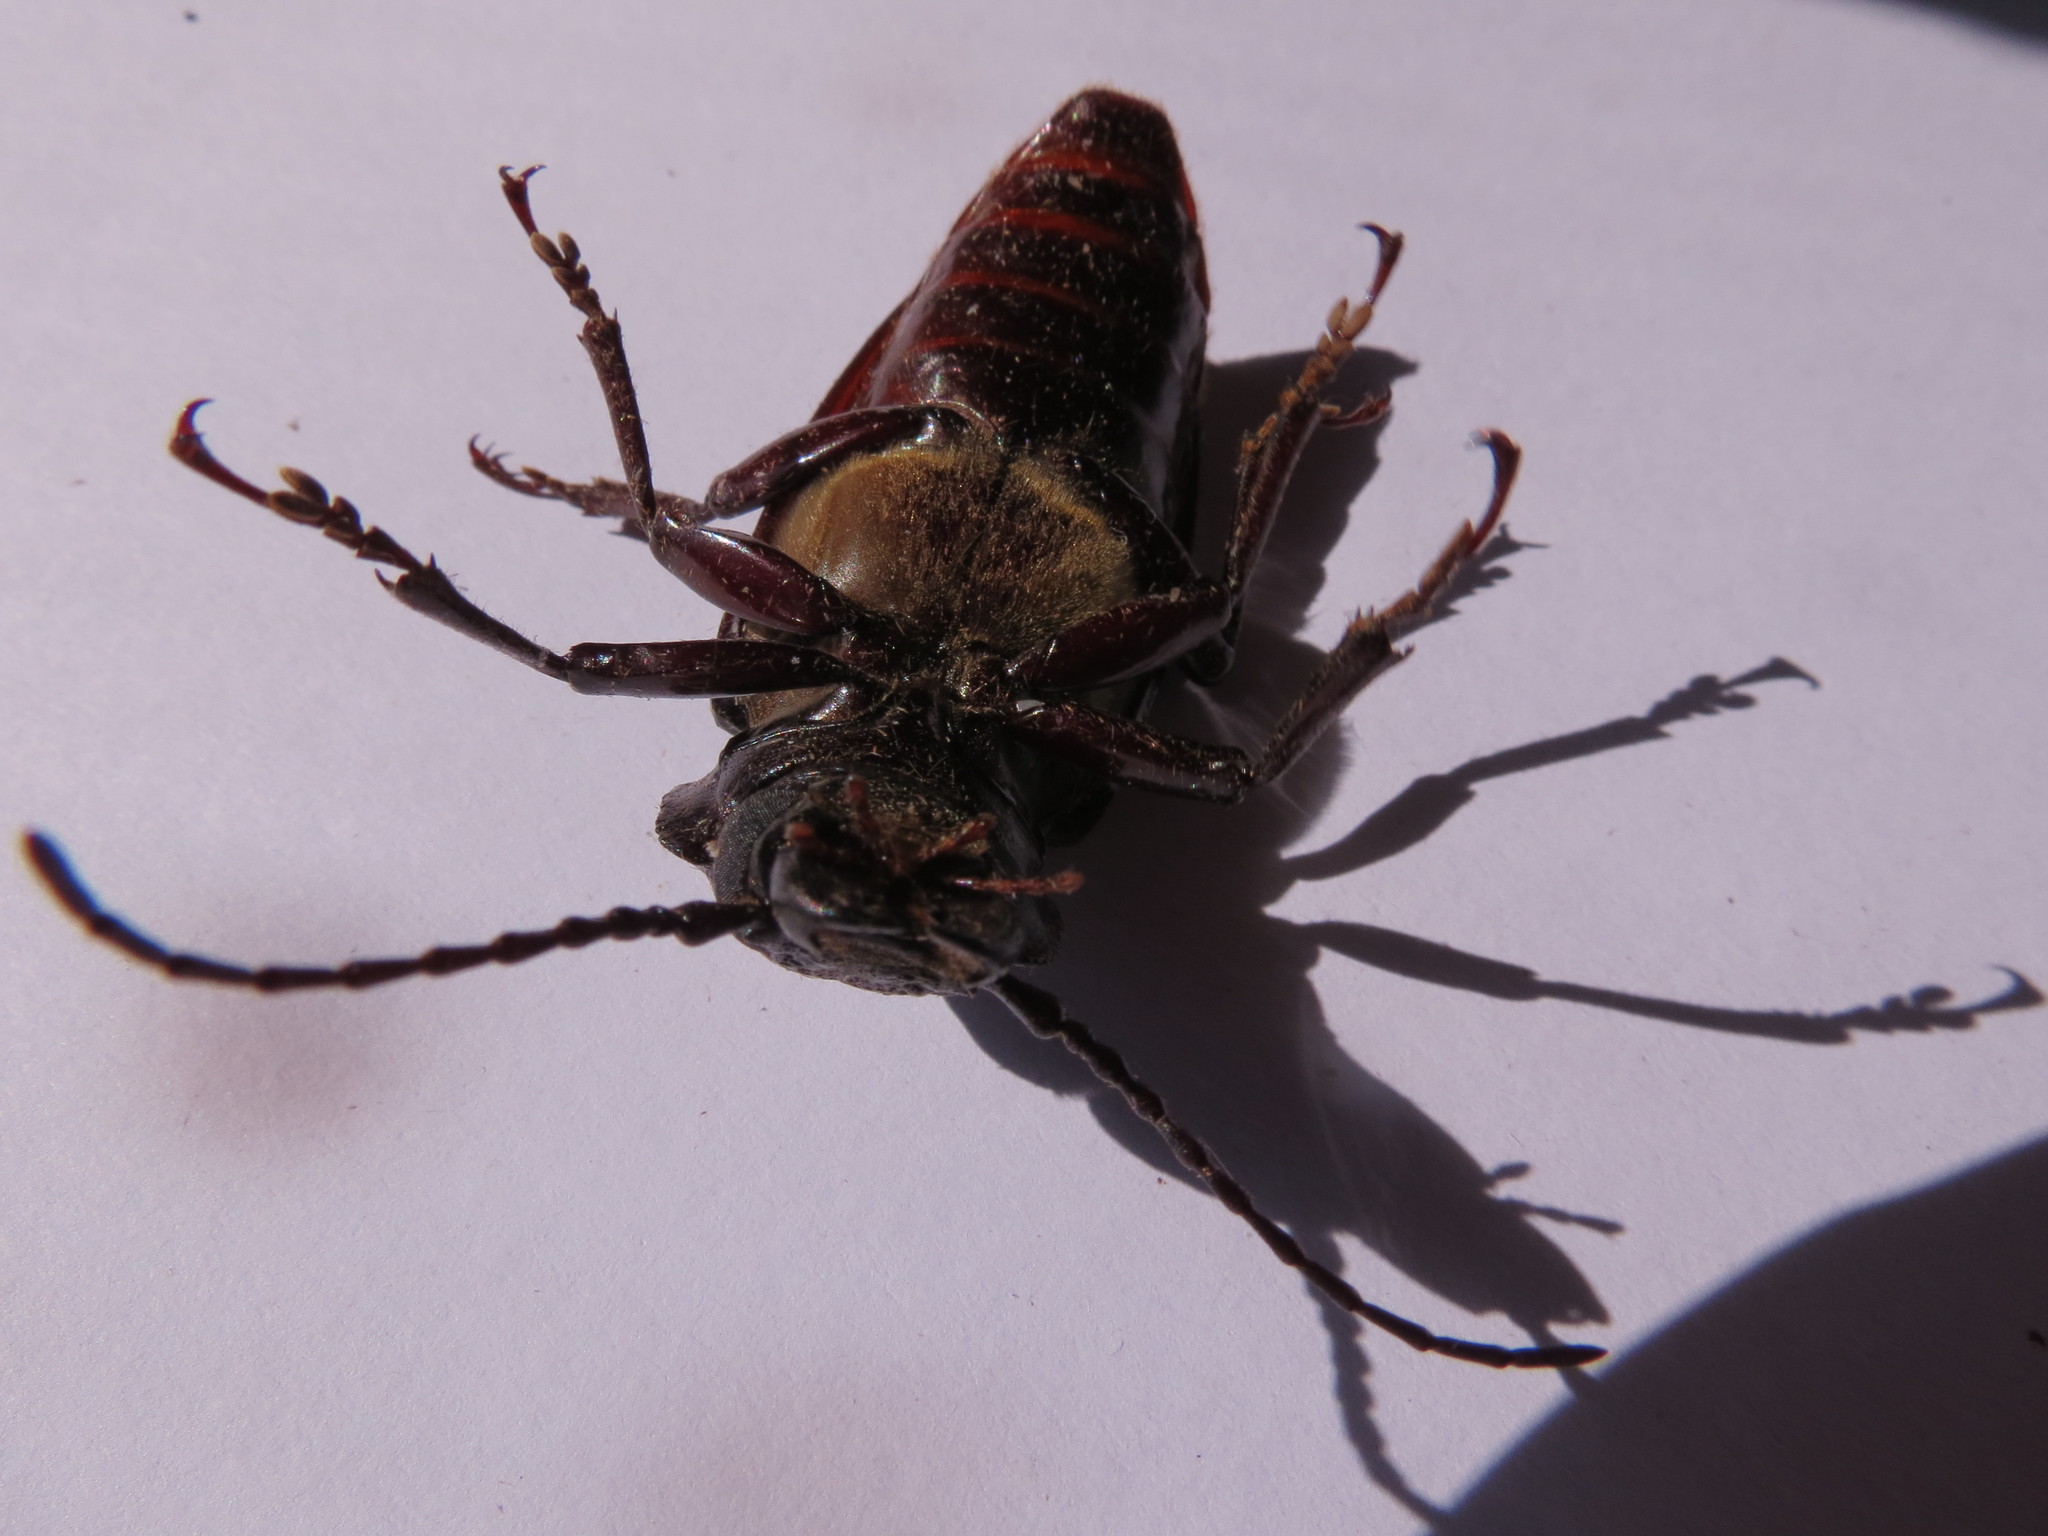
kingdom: Animalia
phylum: Arthropoda
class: Insecta
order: Coleoptera
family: Cerambycidae
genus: Mallodon
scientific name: Mallodon downesii
